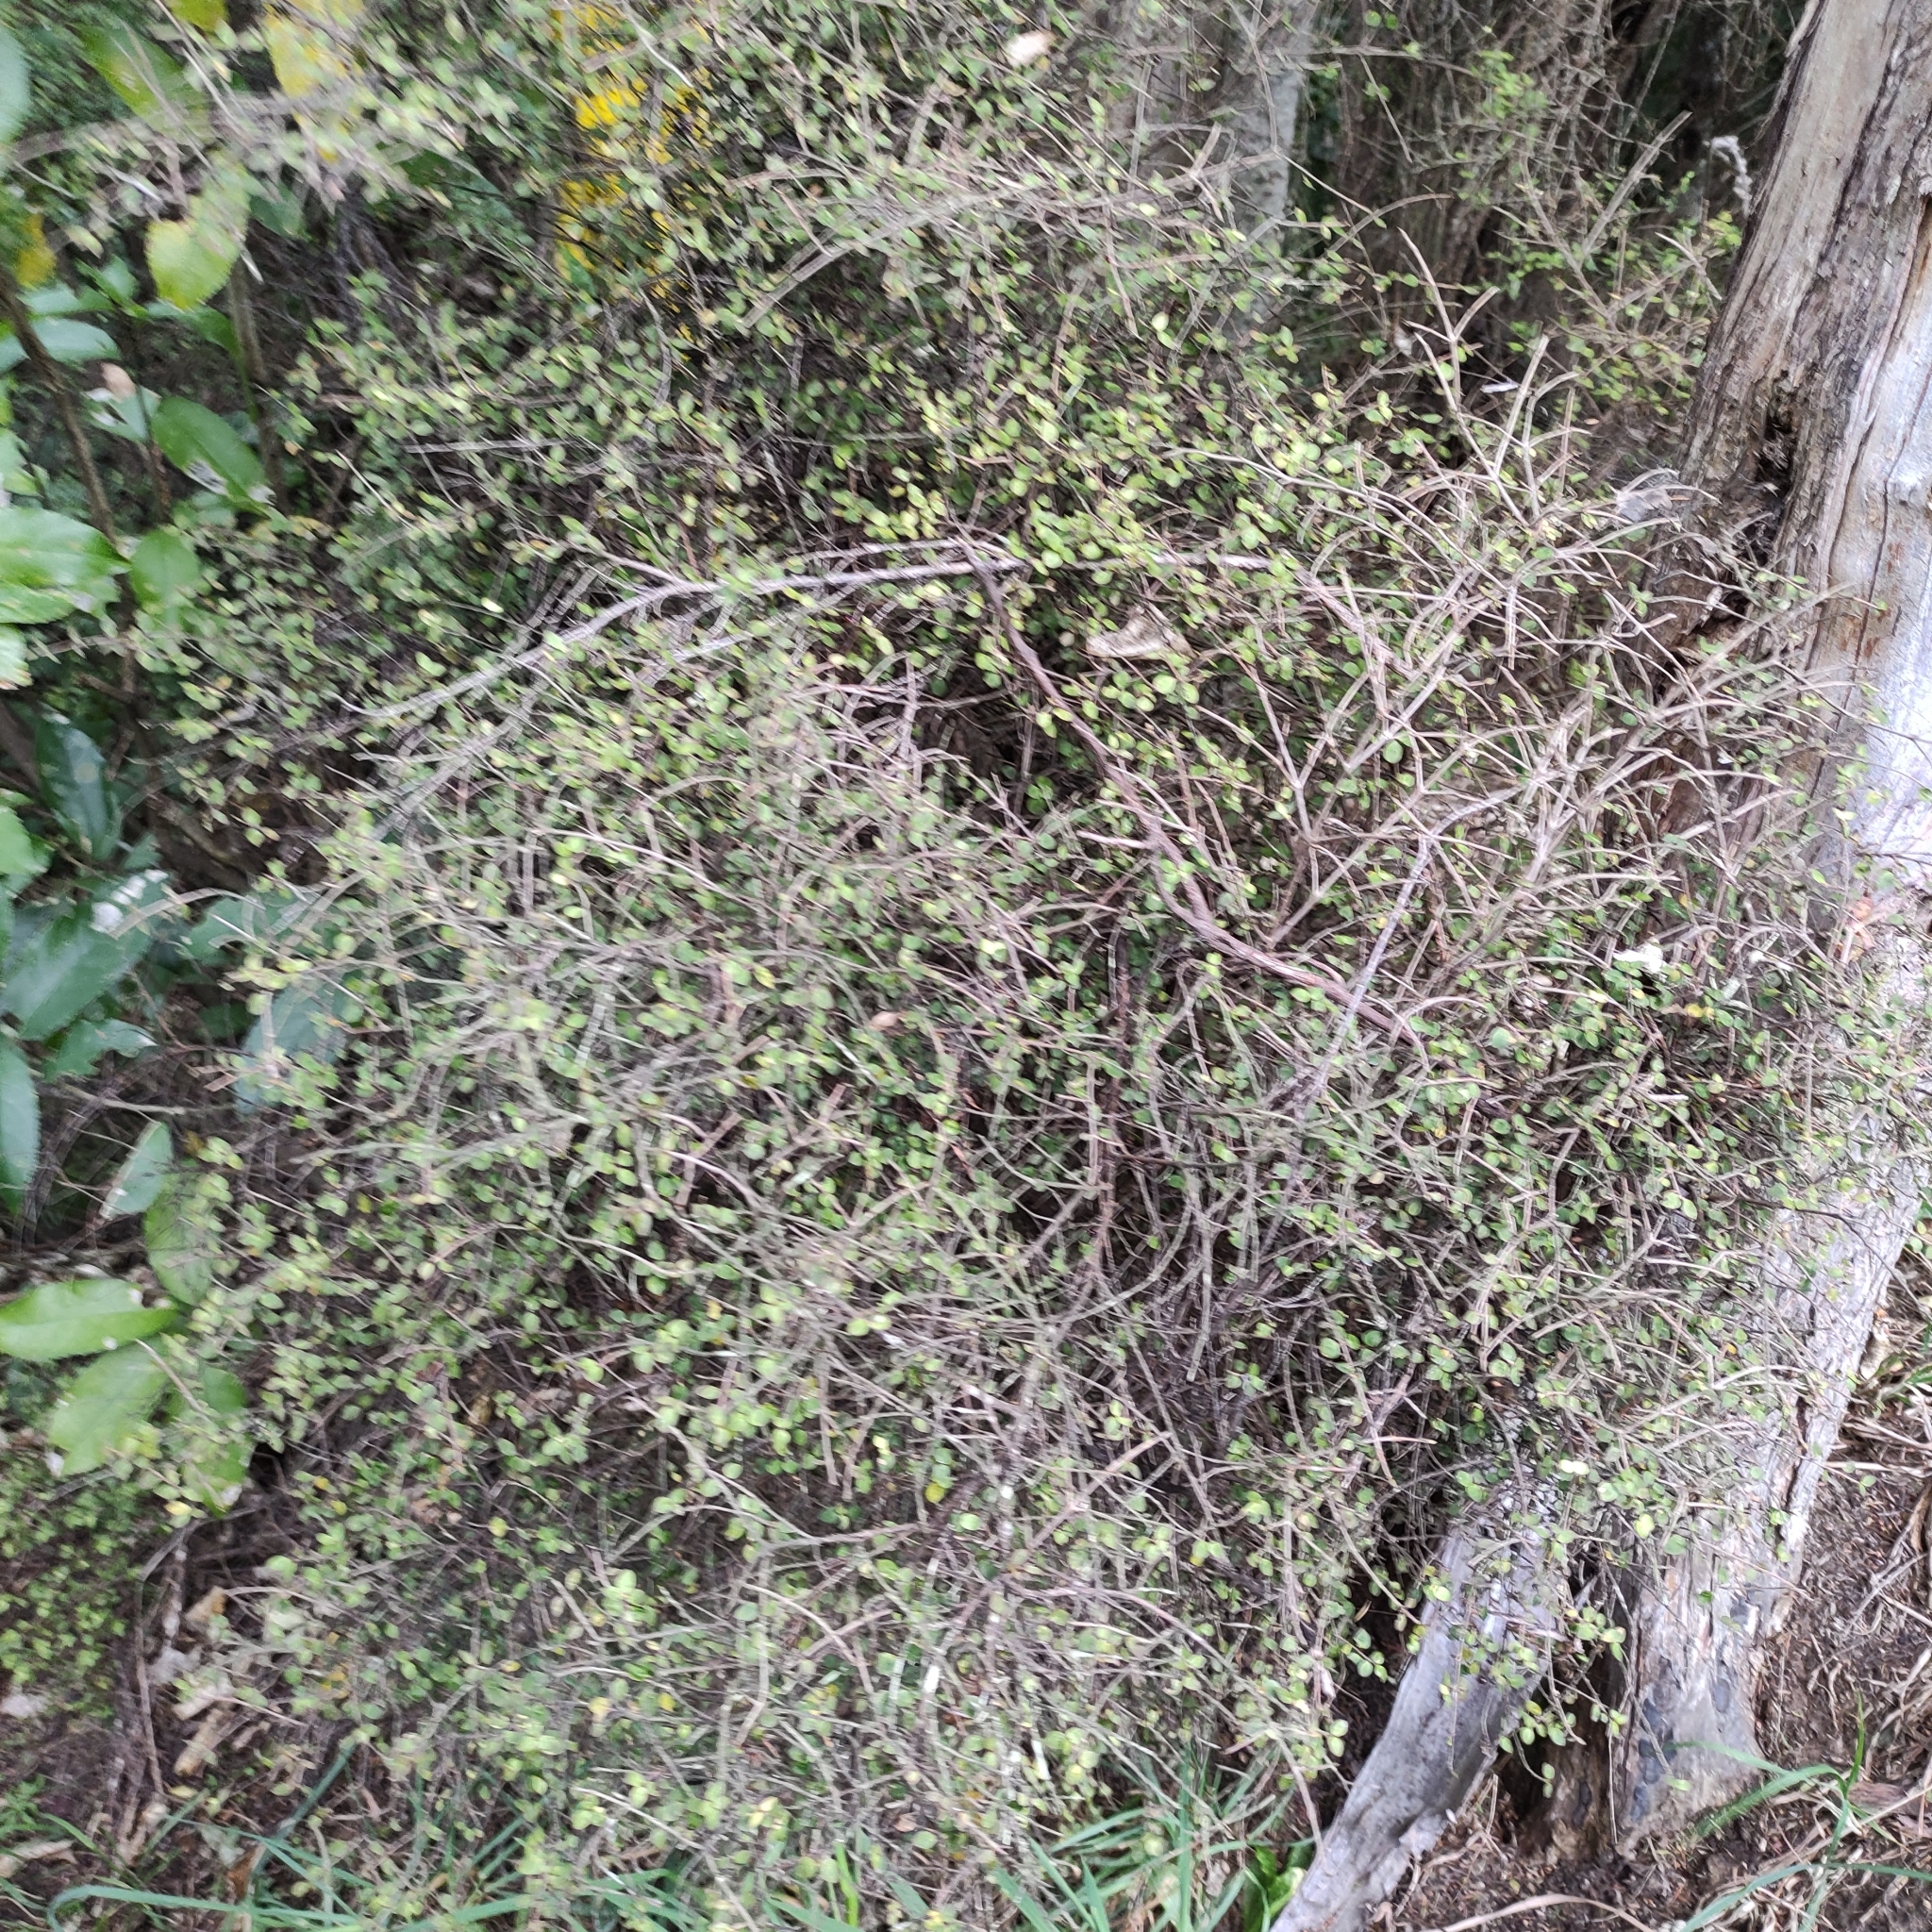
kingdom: Plantae
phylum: Tracheophyta
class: Magnoliopsida
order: Gentianales
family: Rubiaceae
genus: Coprosma
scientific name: Coprosma rhamnoides
